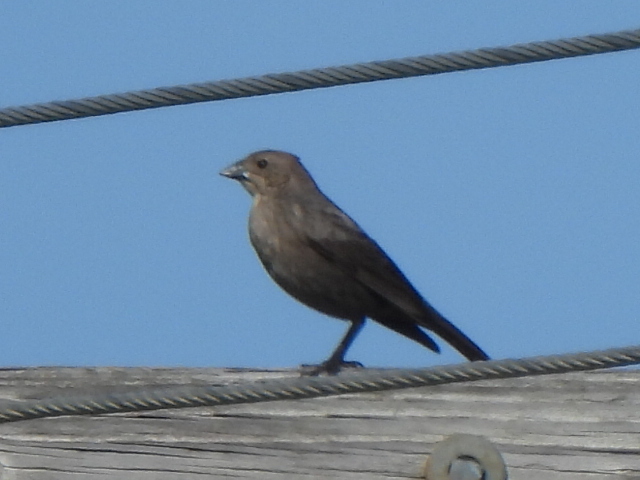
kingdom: Animalia
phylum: Chordata
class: Aves
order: Passeriformes
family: Icteridae
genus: Molothrus
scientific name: Molothrus ater
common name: Brown-headed cowbird
